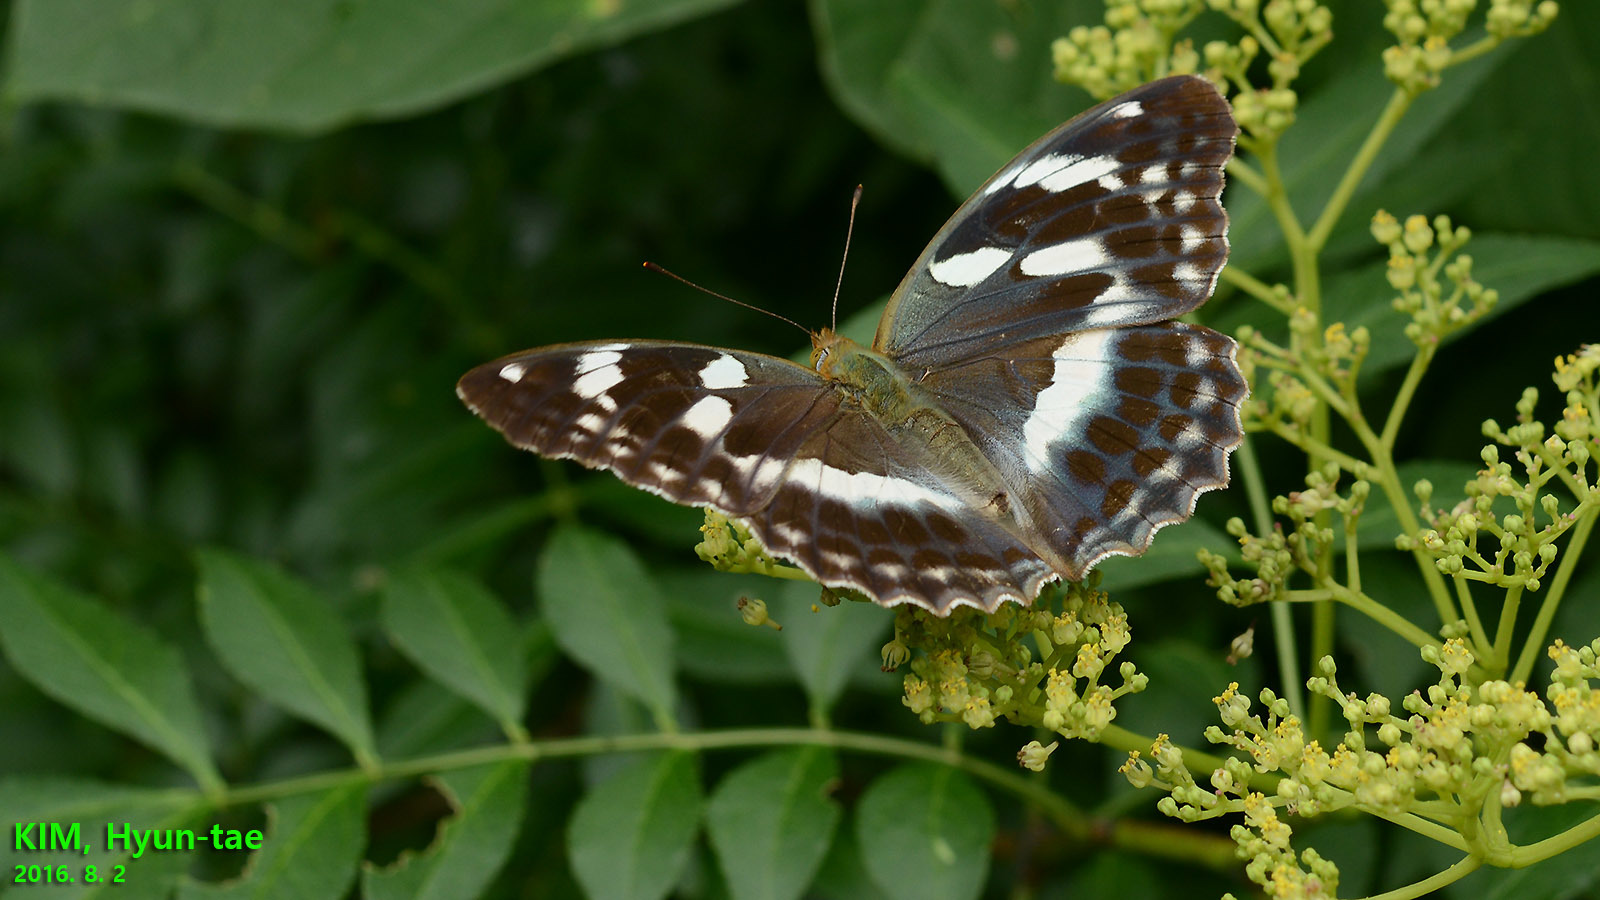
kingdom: Animalia
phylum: Arthropoda
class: Insecta
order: Lepidoptera
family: Nymphalidae
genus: Damora
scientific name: Damora sagana
